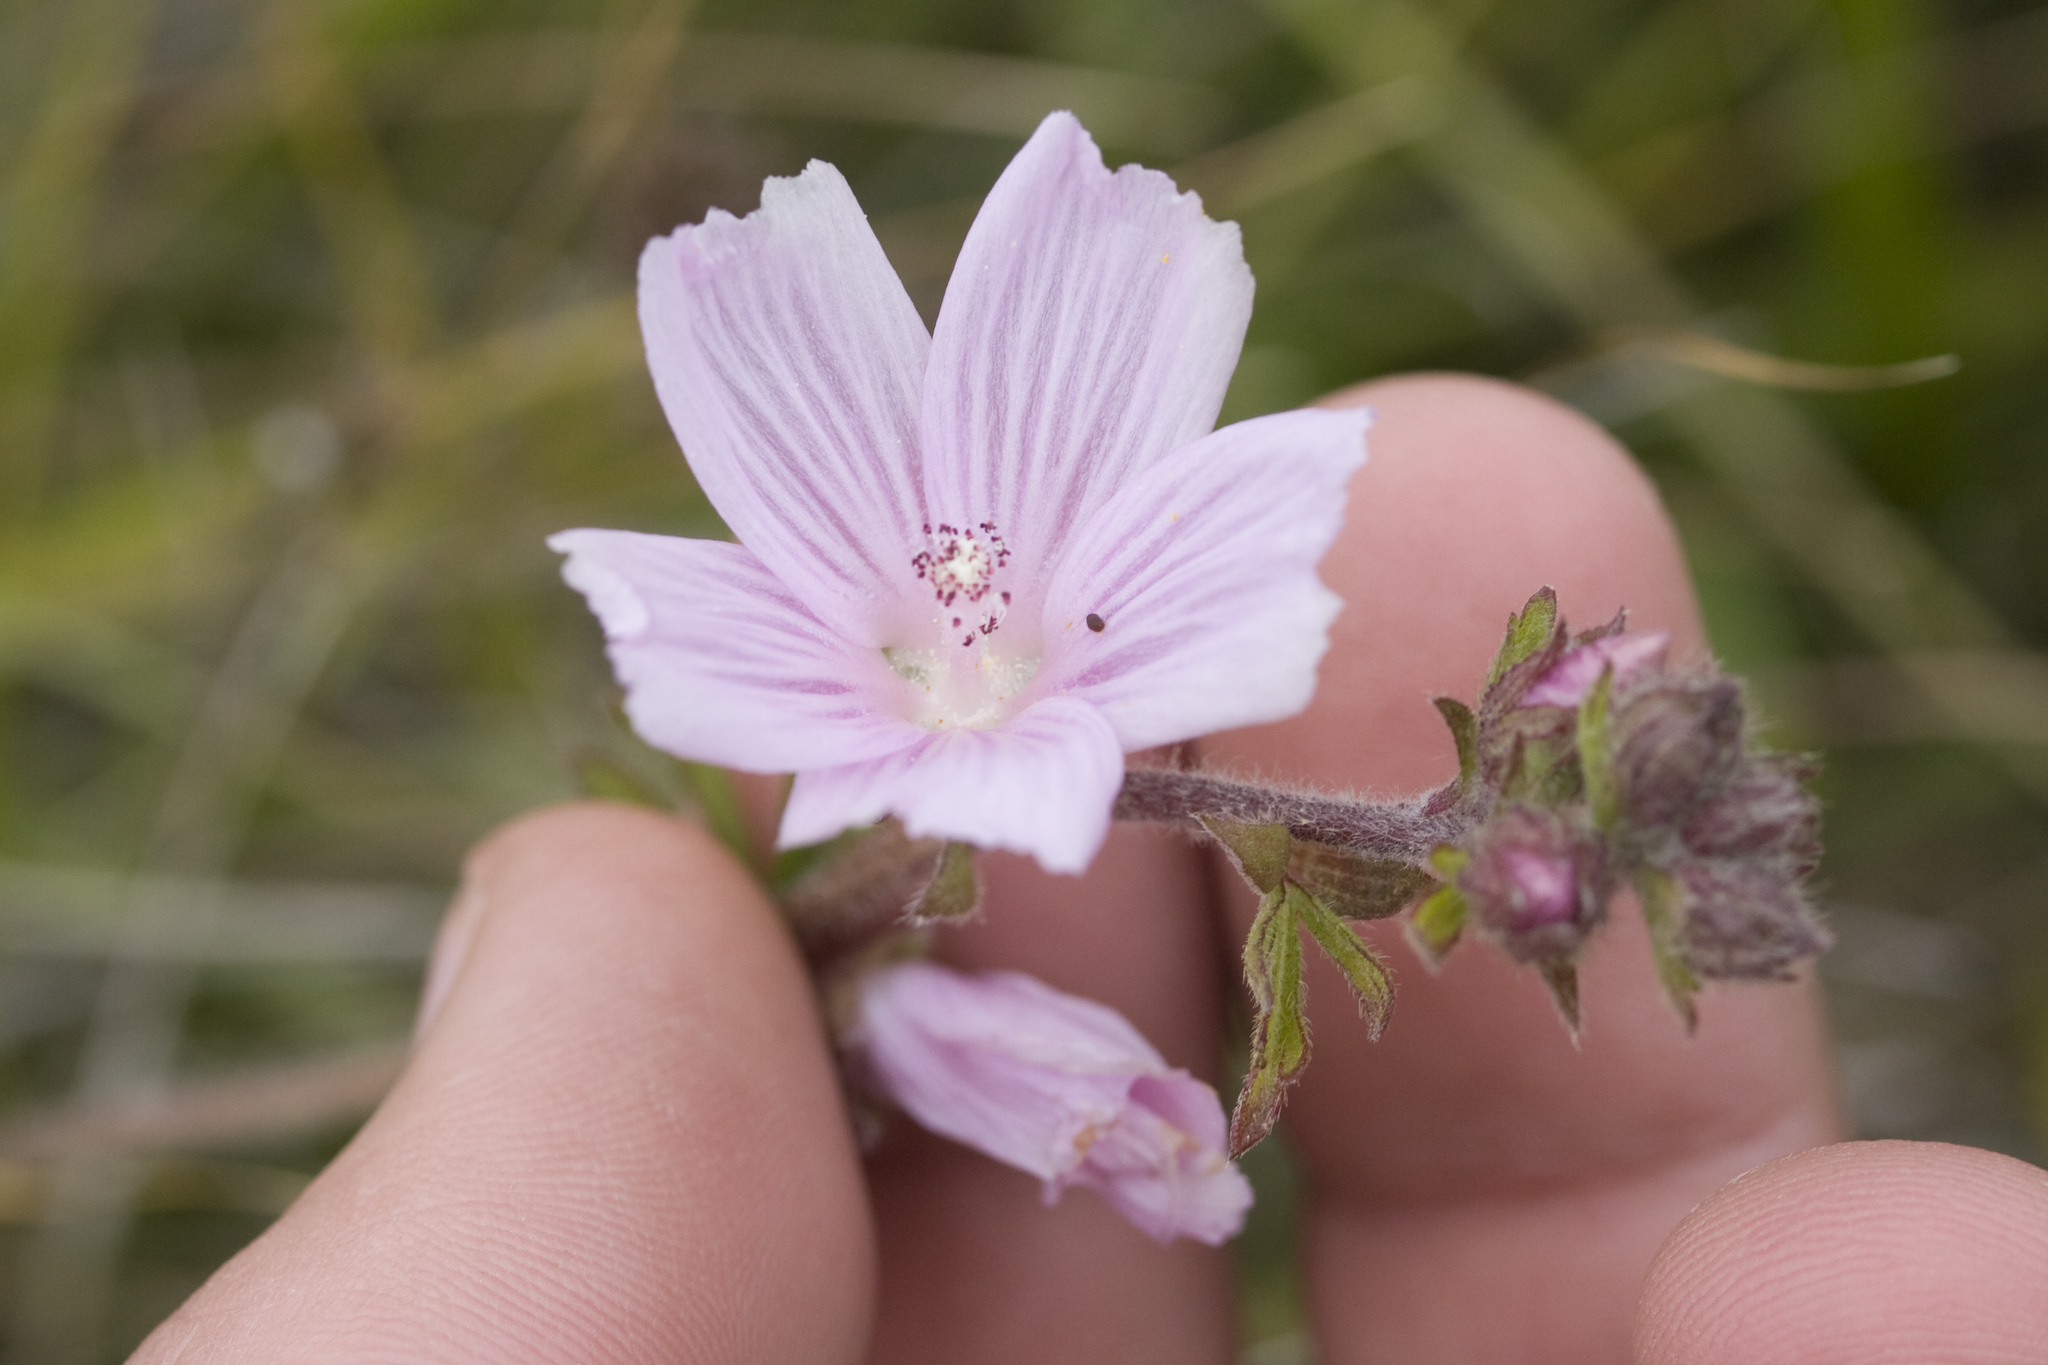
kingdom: Plantae
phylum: Tracheophyta
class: Magnoliopsida
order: Malvales
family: Malvaceae
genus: Sidalcea
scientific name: Sidalcea malviflora
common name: Greek mallow
